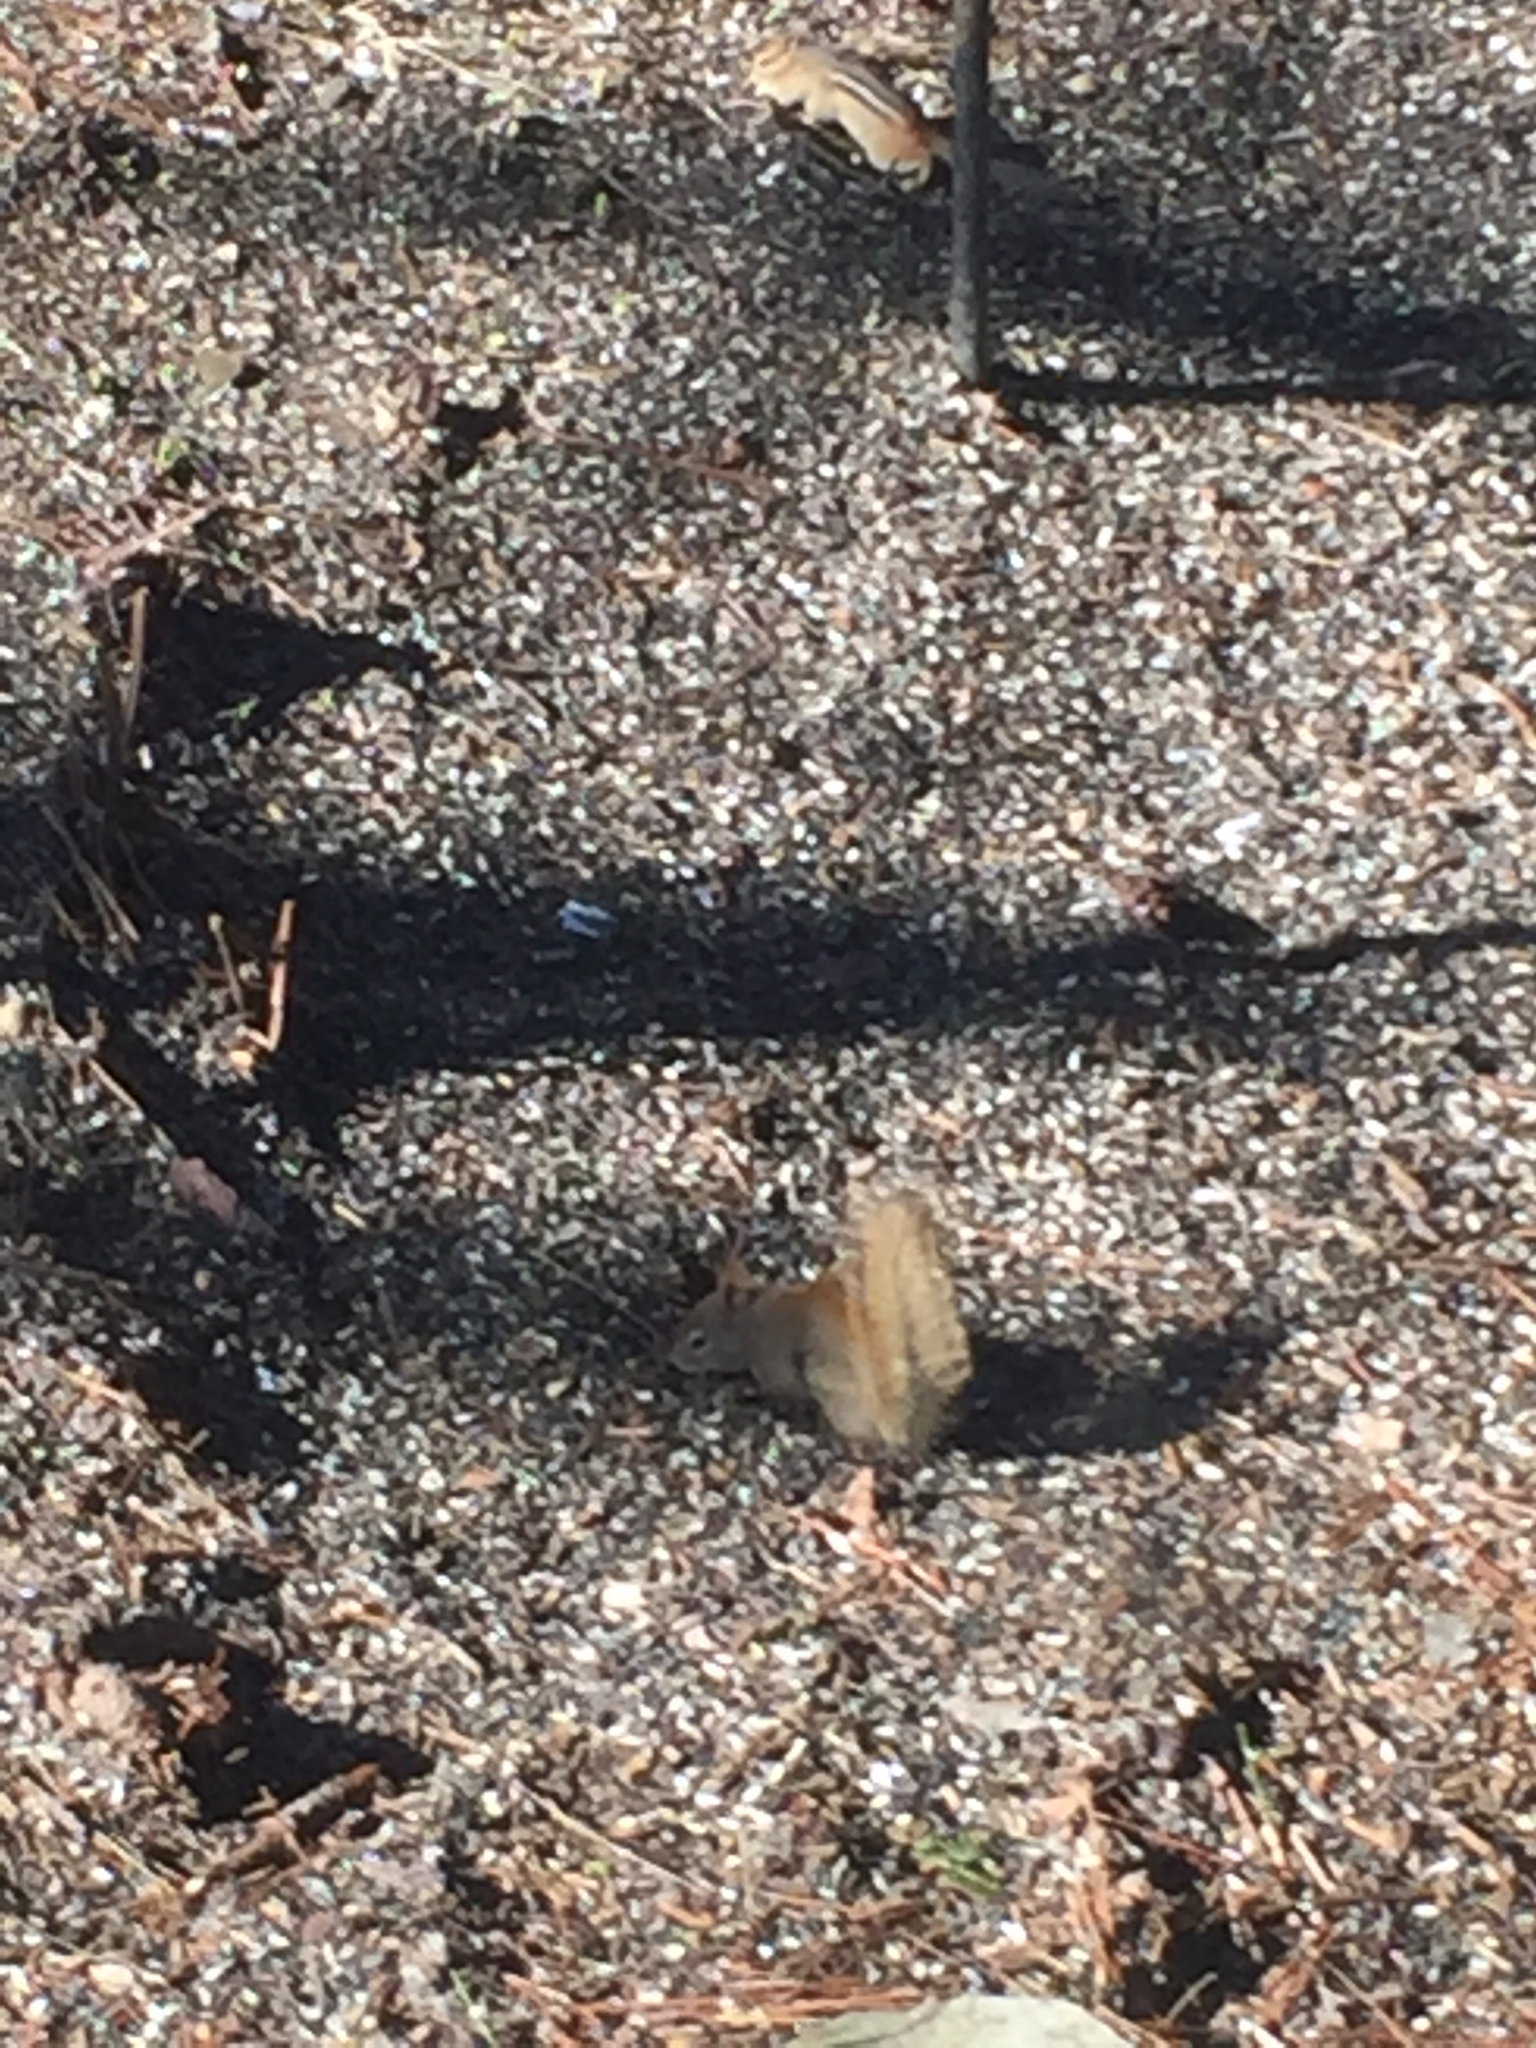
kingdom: Animalia
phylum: Chordata
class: Mammalia
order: Rodentia
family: Sciuridae
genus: Tamiasciurus
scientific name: Tamiasciurus hudsonicus
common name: Red squirrel
